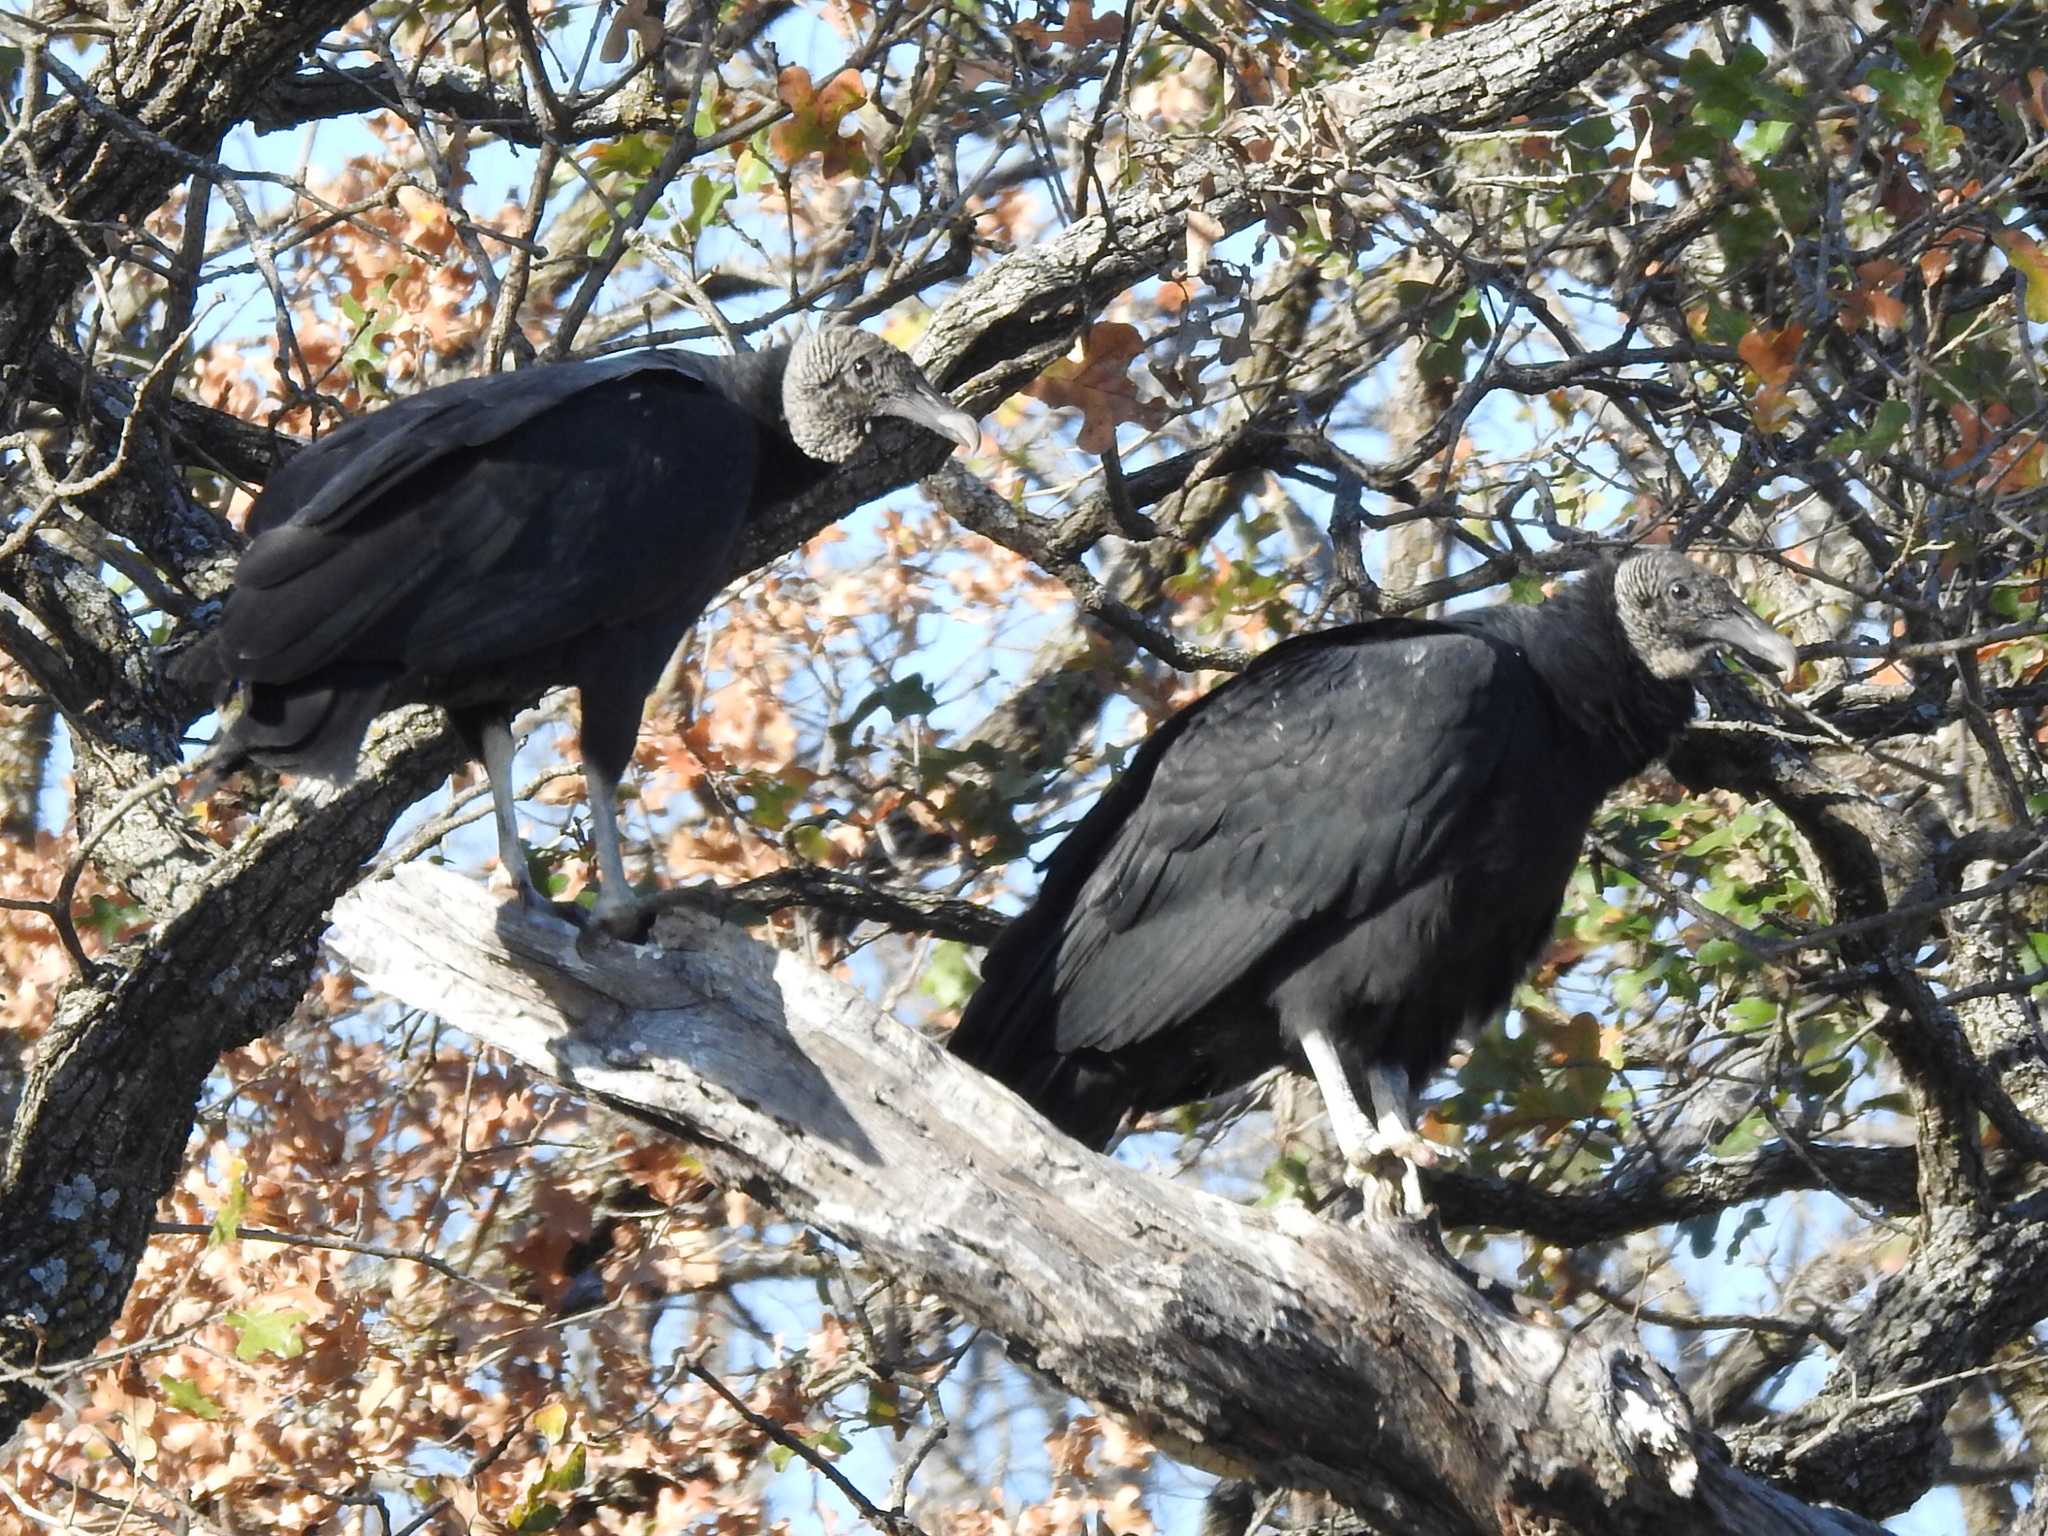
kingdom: Animalia
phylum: Chordata
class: Aves
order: Accipitriformes
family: Cathartidae
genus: Coragyps
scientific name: Coragyps atratus
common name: Black vulture
